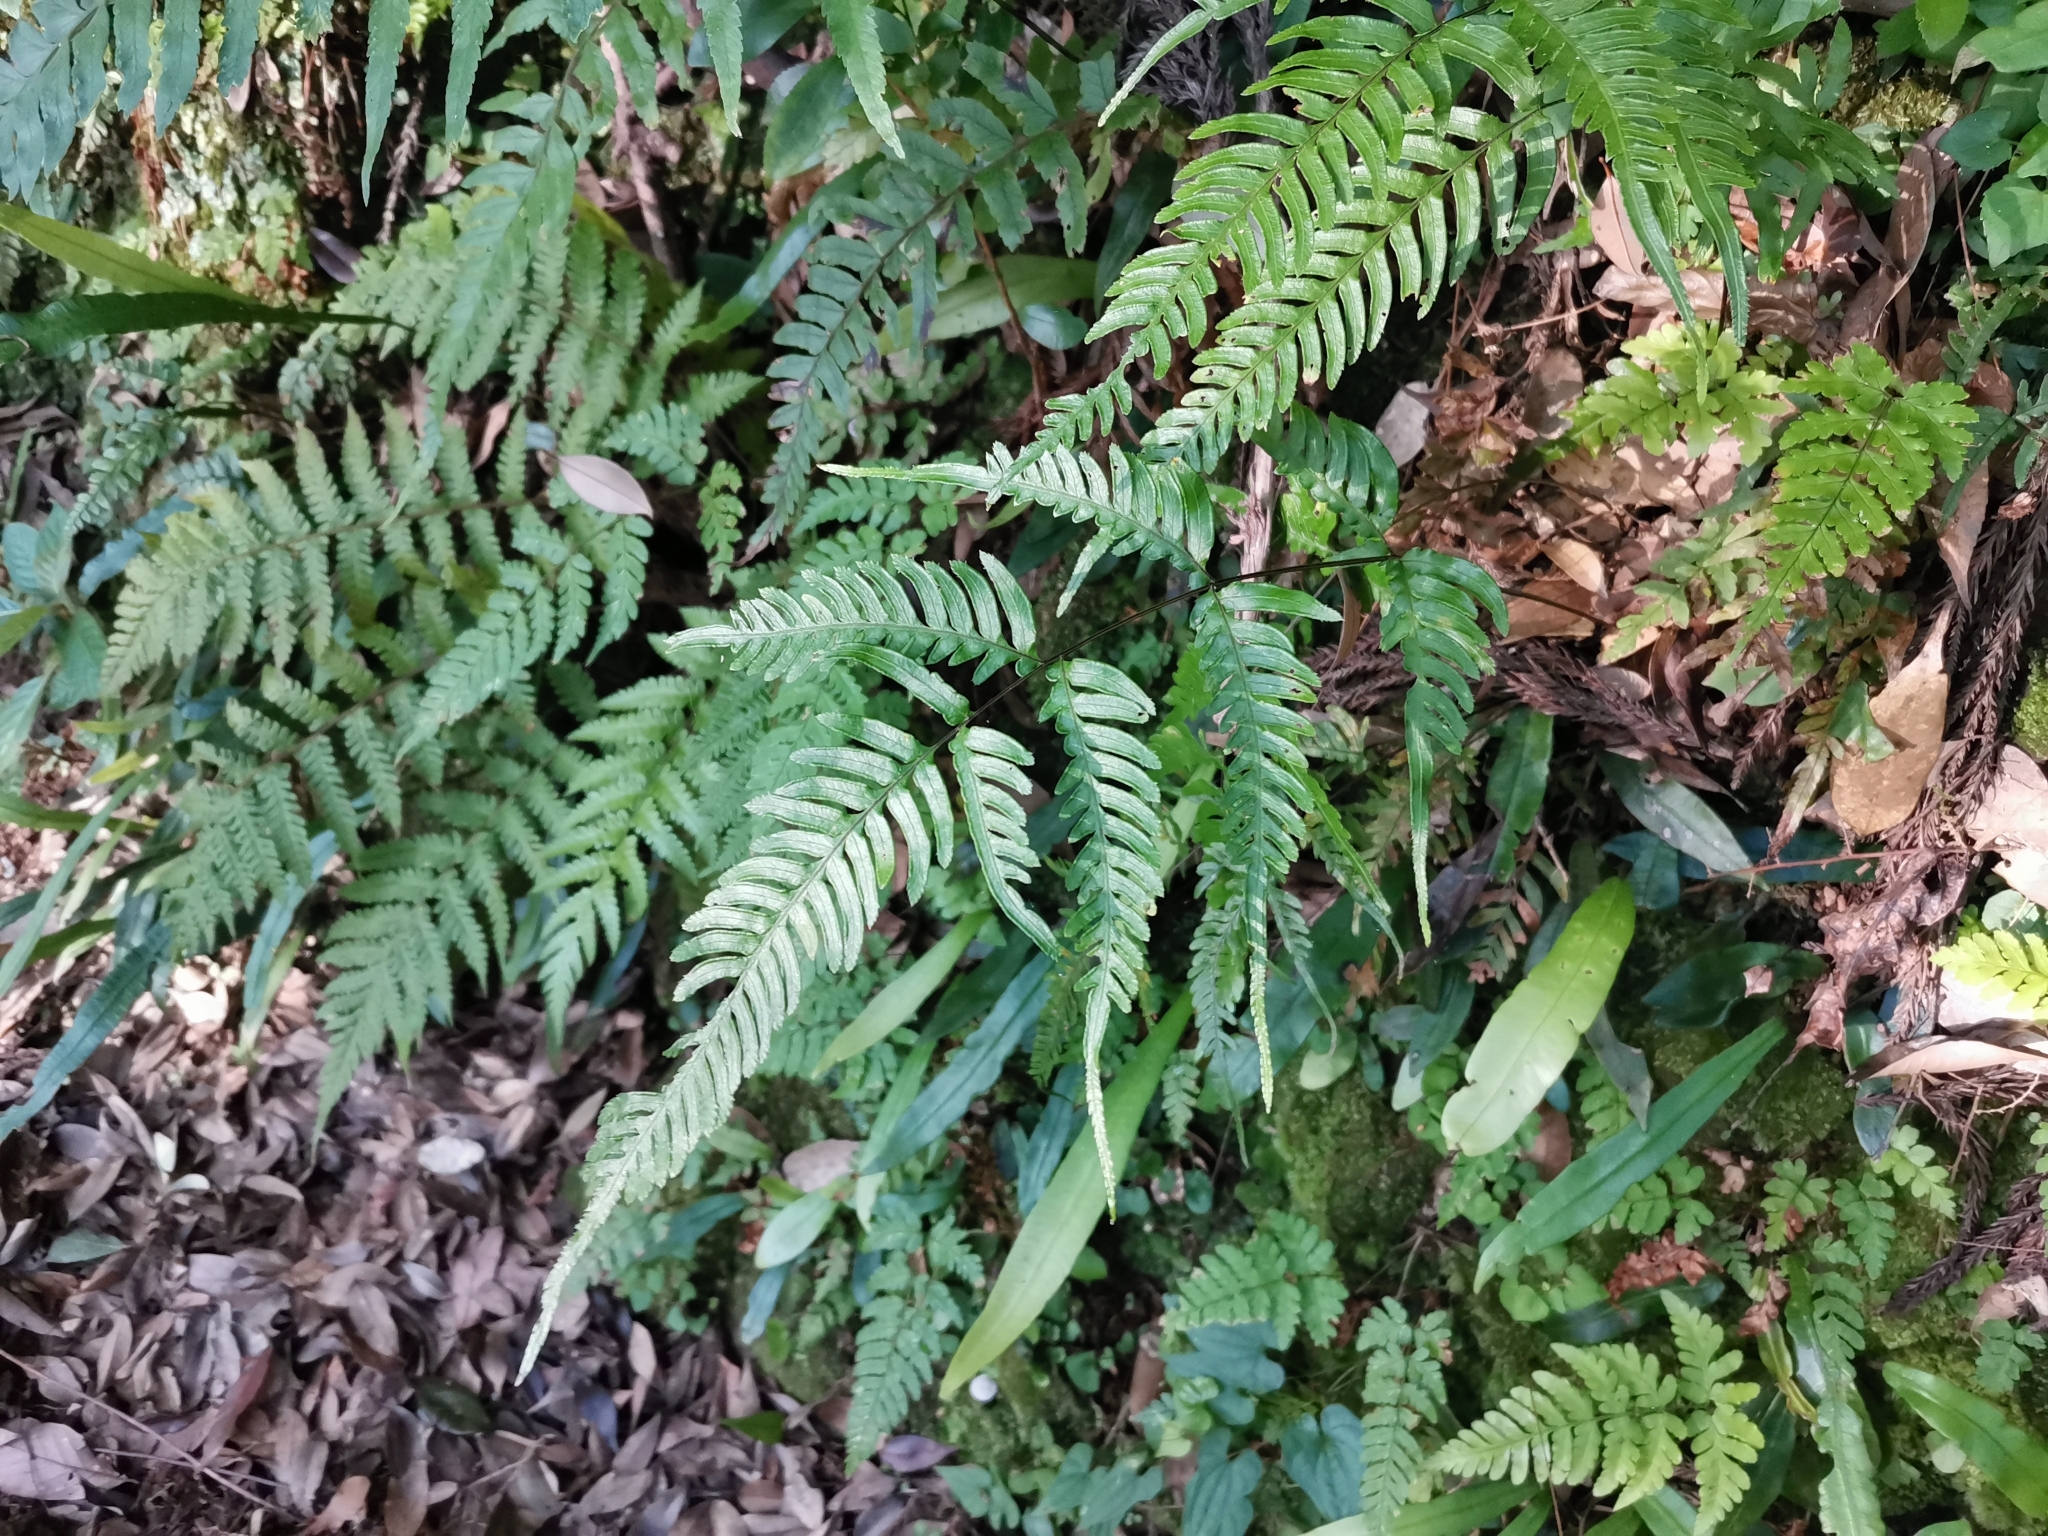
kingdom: Plantae
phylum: Tracheophyta
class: Polypodiopsida
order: Polypodiales
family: Pteridaceae
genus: Pteris
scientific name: Pteris dispar
